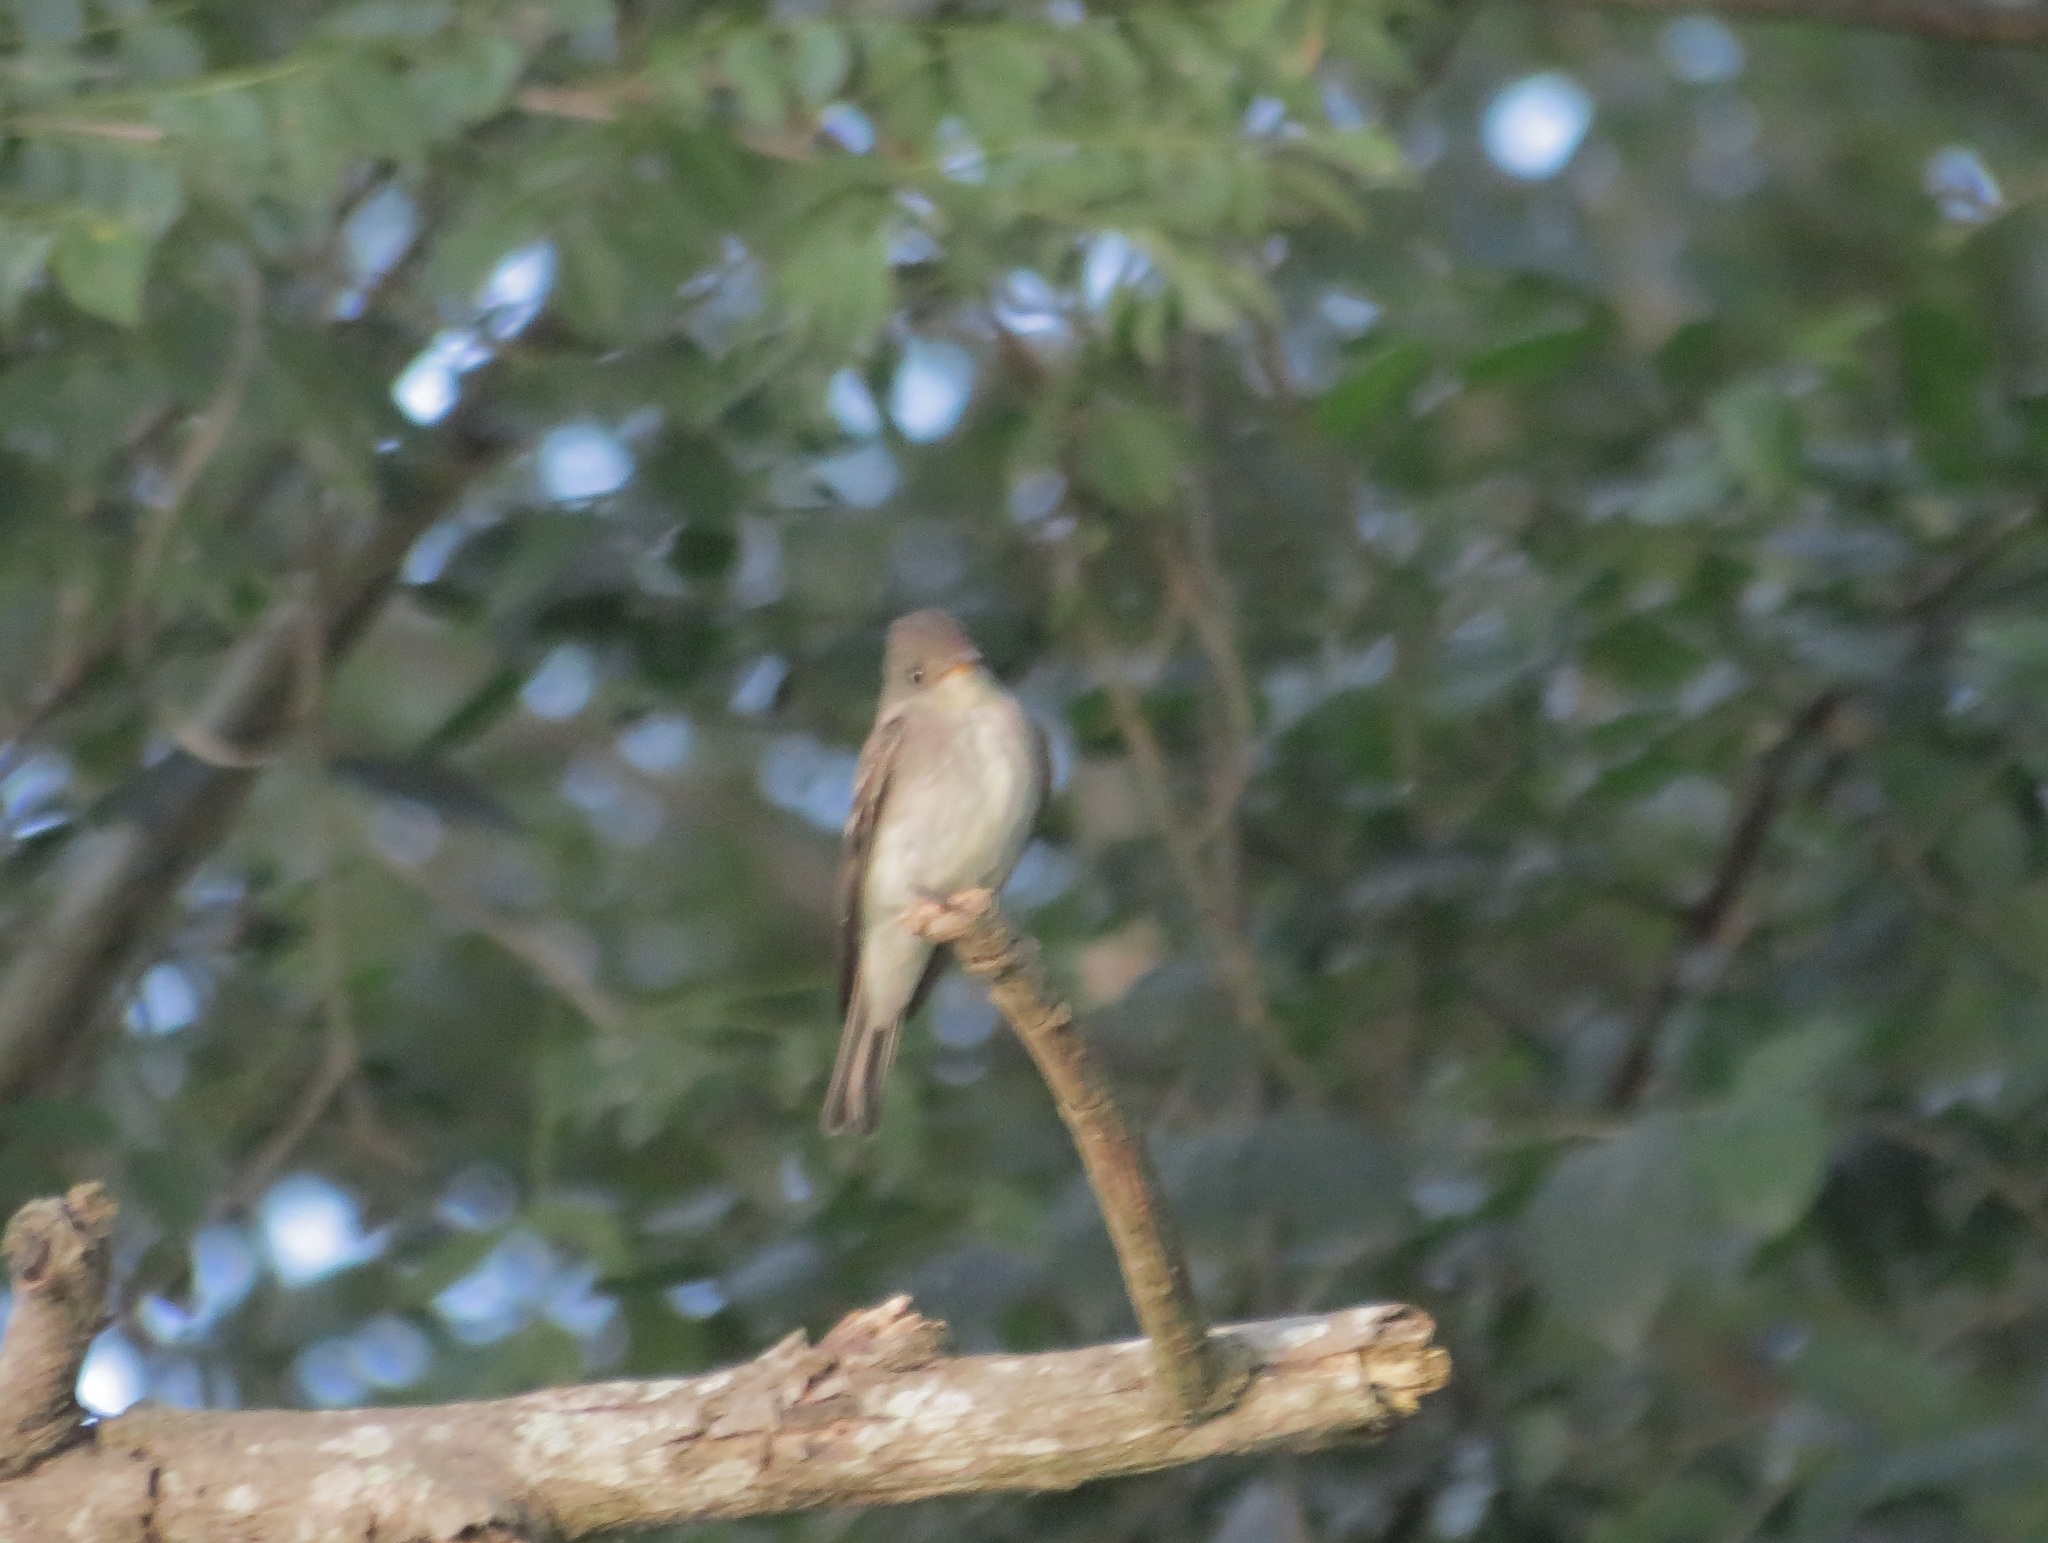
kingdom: Animalia
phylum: Chordata
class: Aves
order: Passeriformes
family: Tyrannidae
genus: Contopus
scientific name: Contopus virens
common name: Eastern wood-pewee
